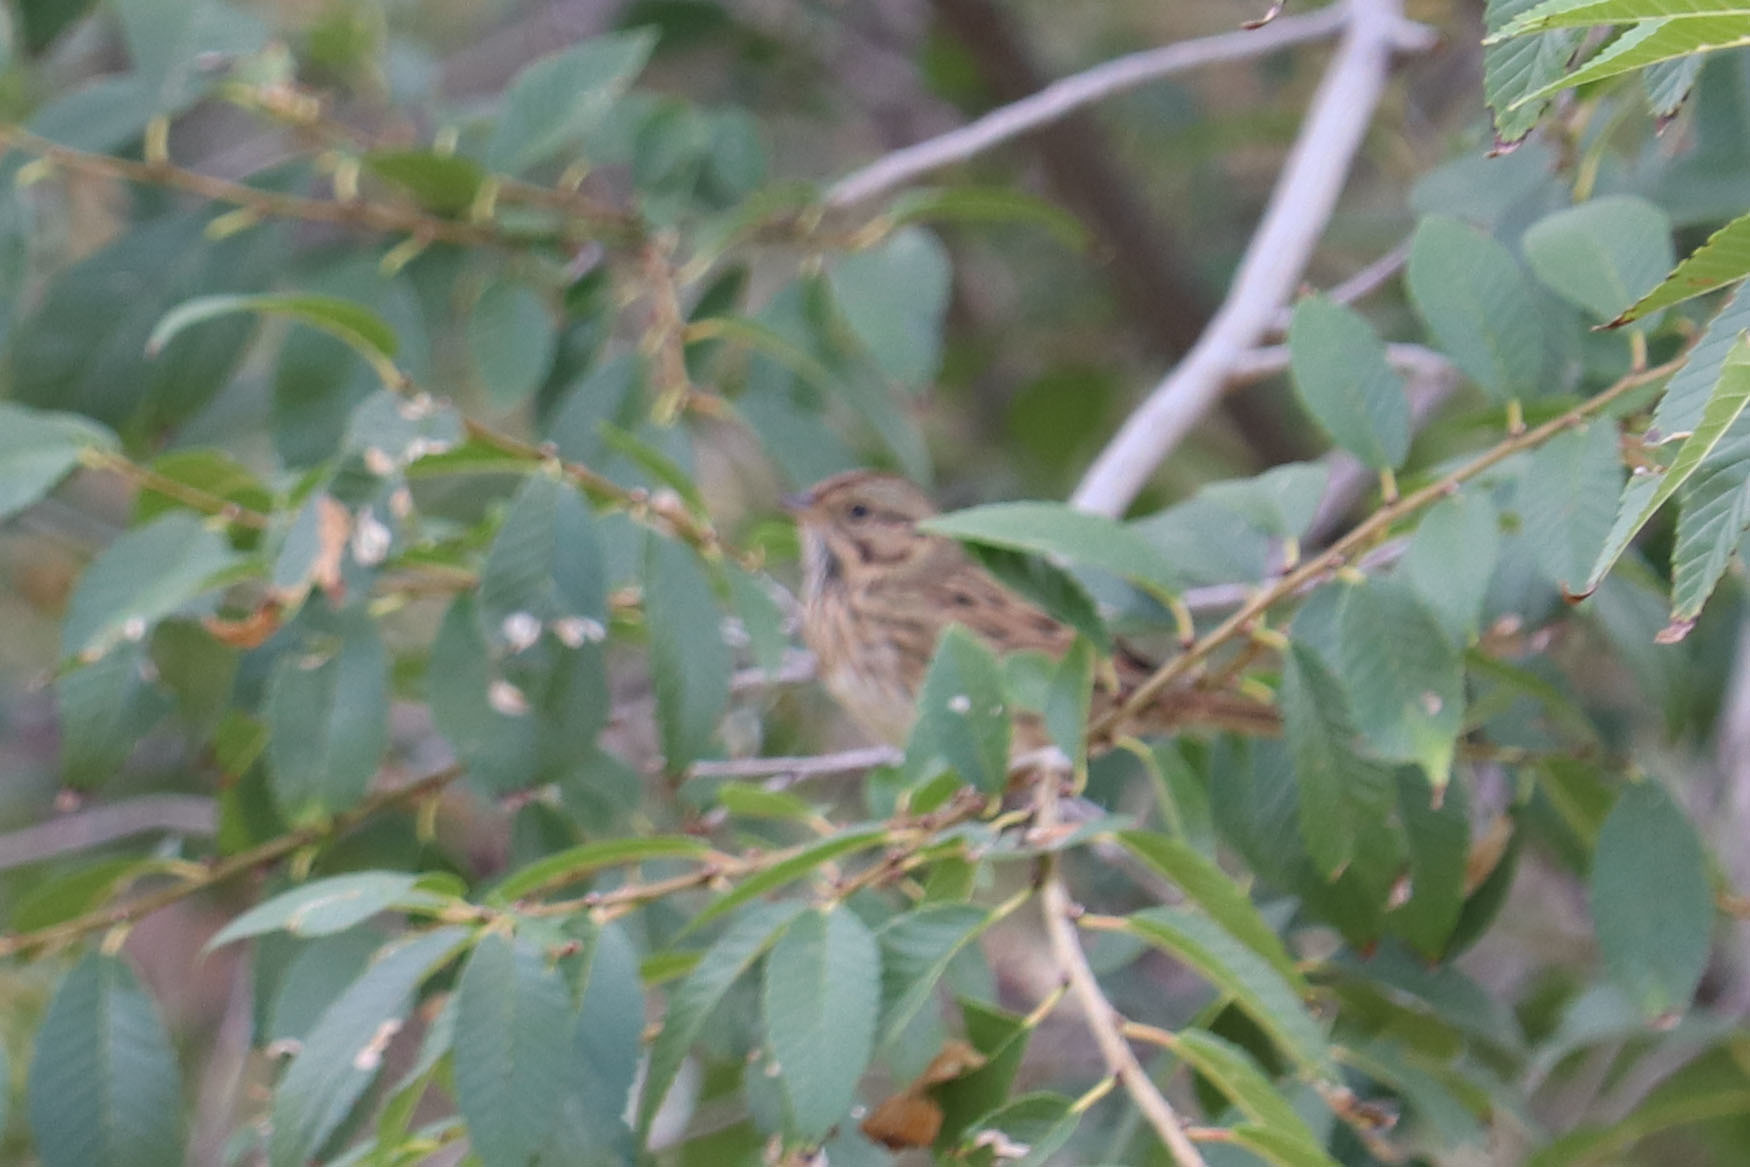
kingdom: Animalia
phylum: Chordata
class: Aves
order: Passeriformes
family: Passerellidae
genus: Melospiza
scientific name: Melospiza lincolnii
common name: Lincoln's sparrow
